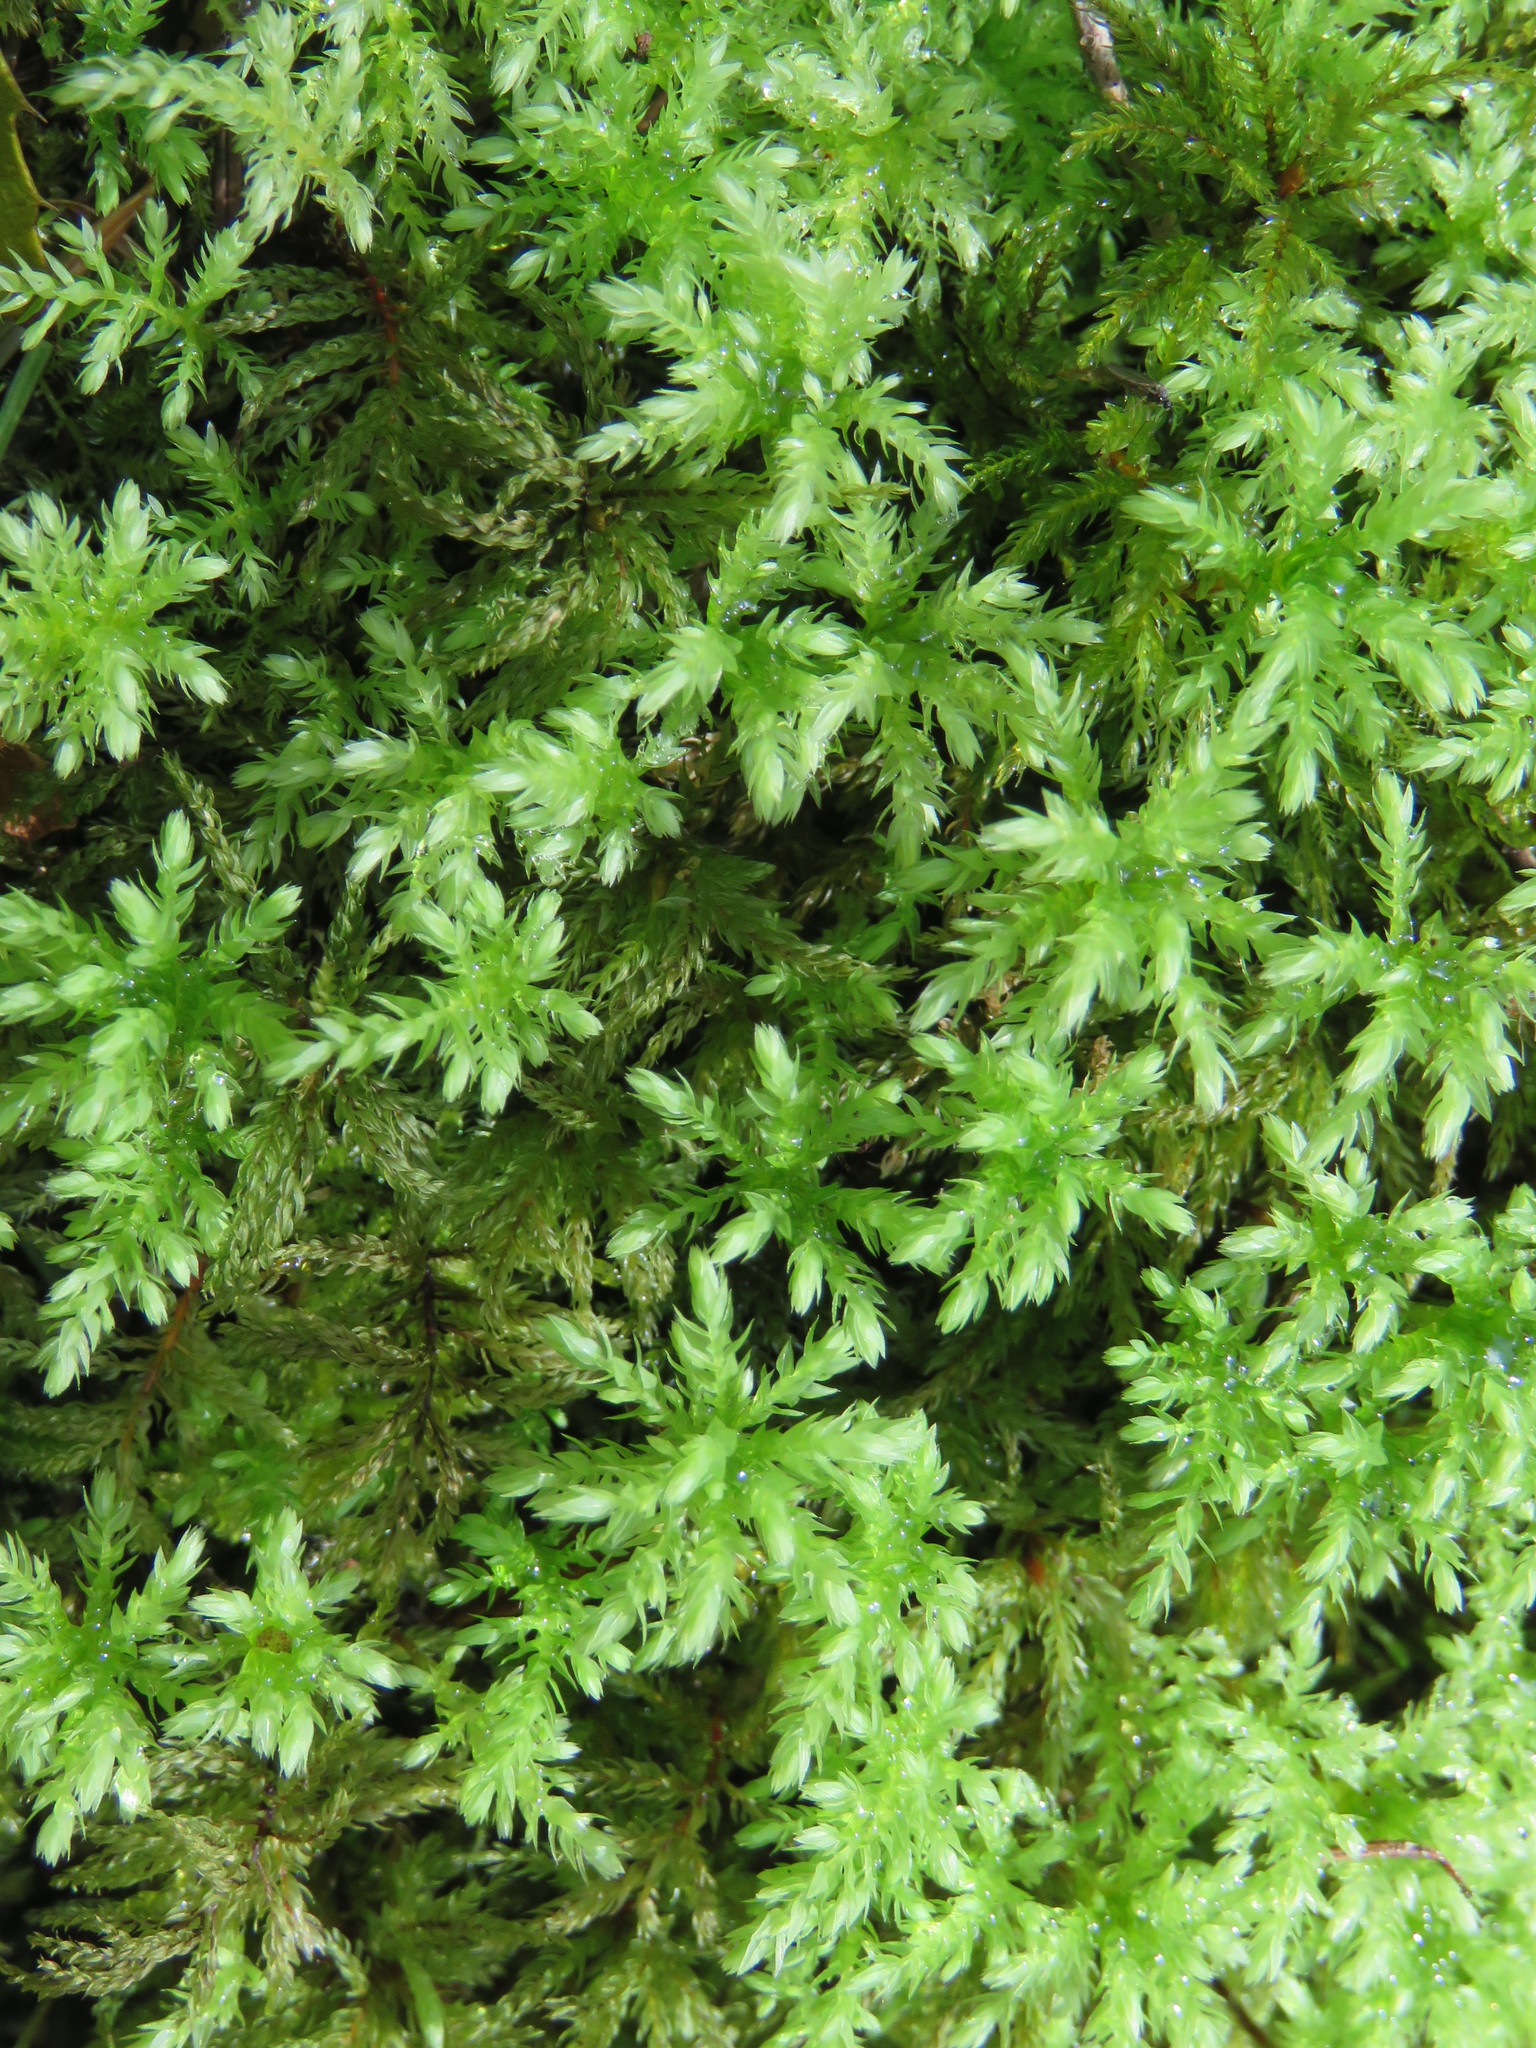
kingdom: Plantae
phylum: Bryophyta
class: Bryopsida
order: Bryales
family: Mniaceae
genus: Leucolepis
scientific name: Leucolepis acanthoneura
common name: Leucolepis umbrella moss
